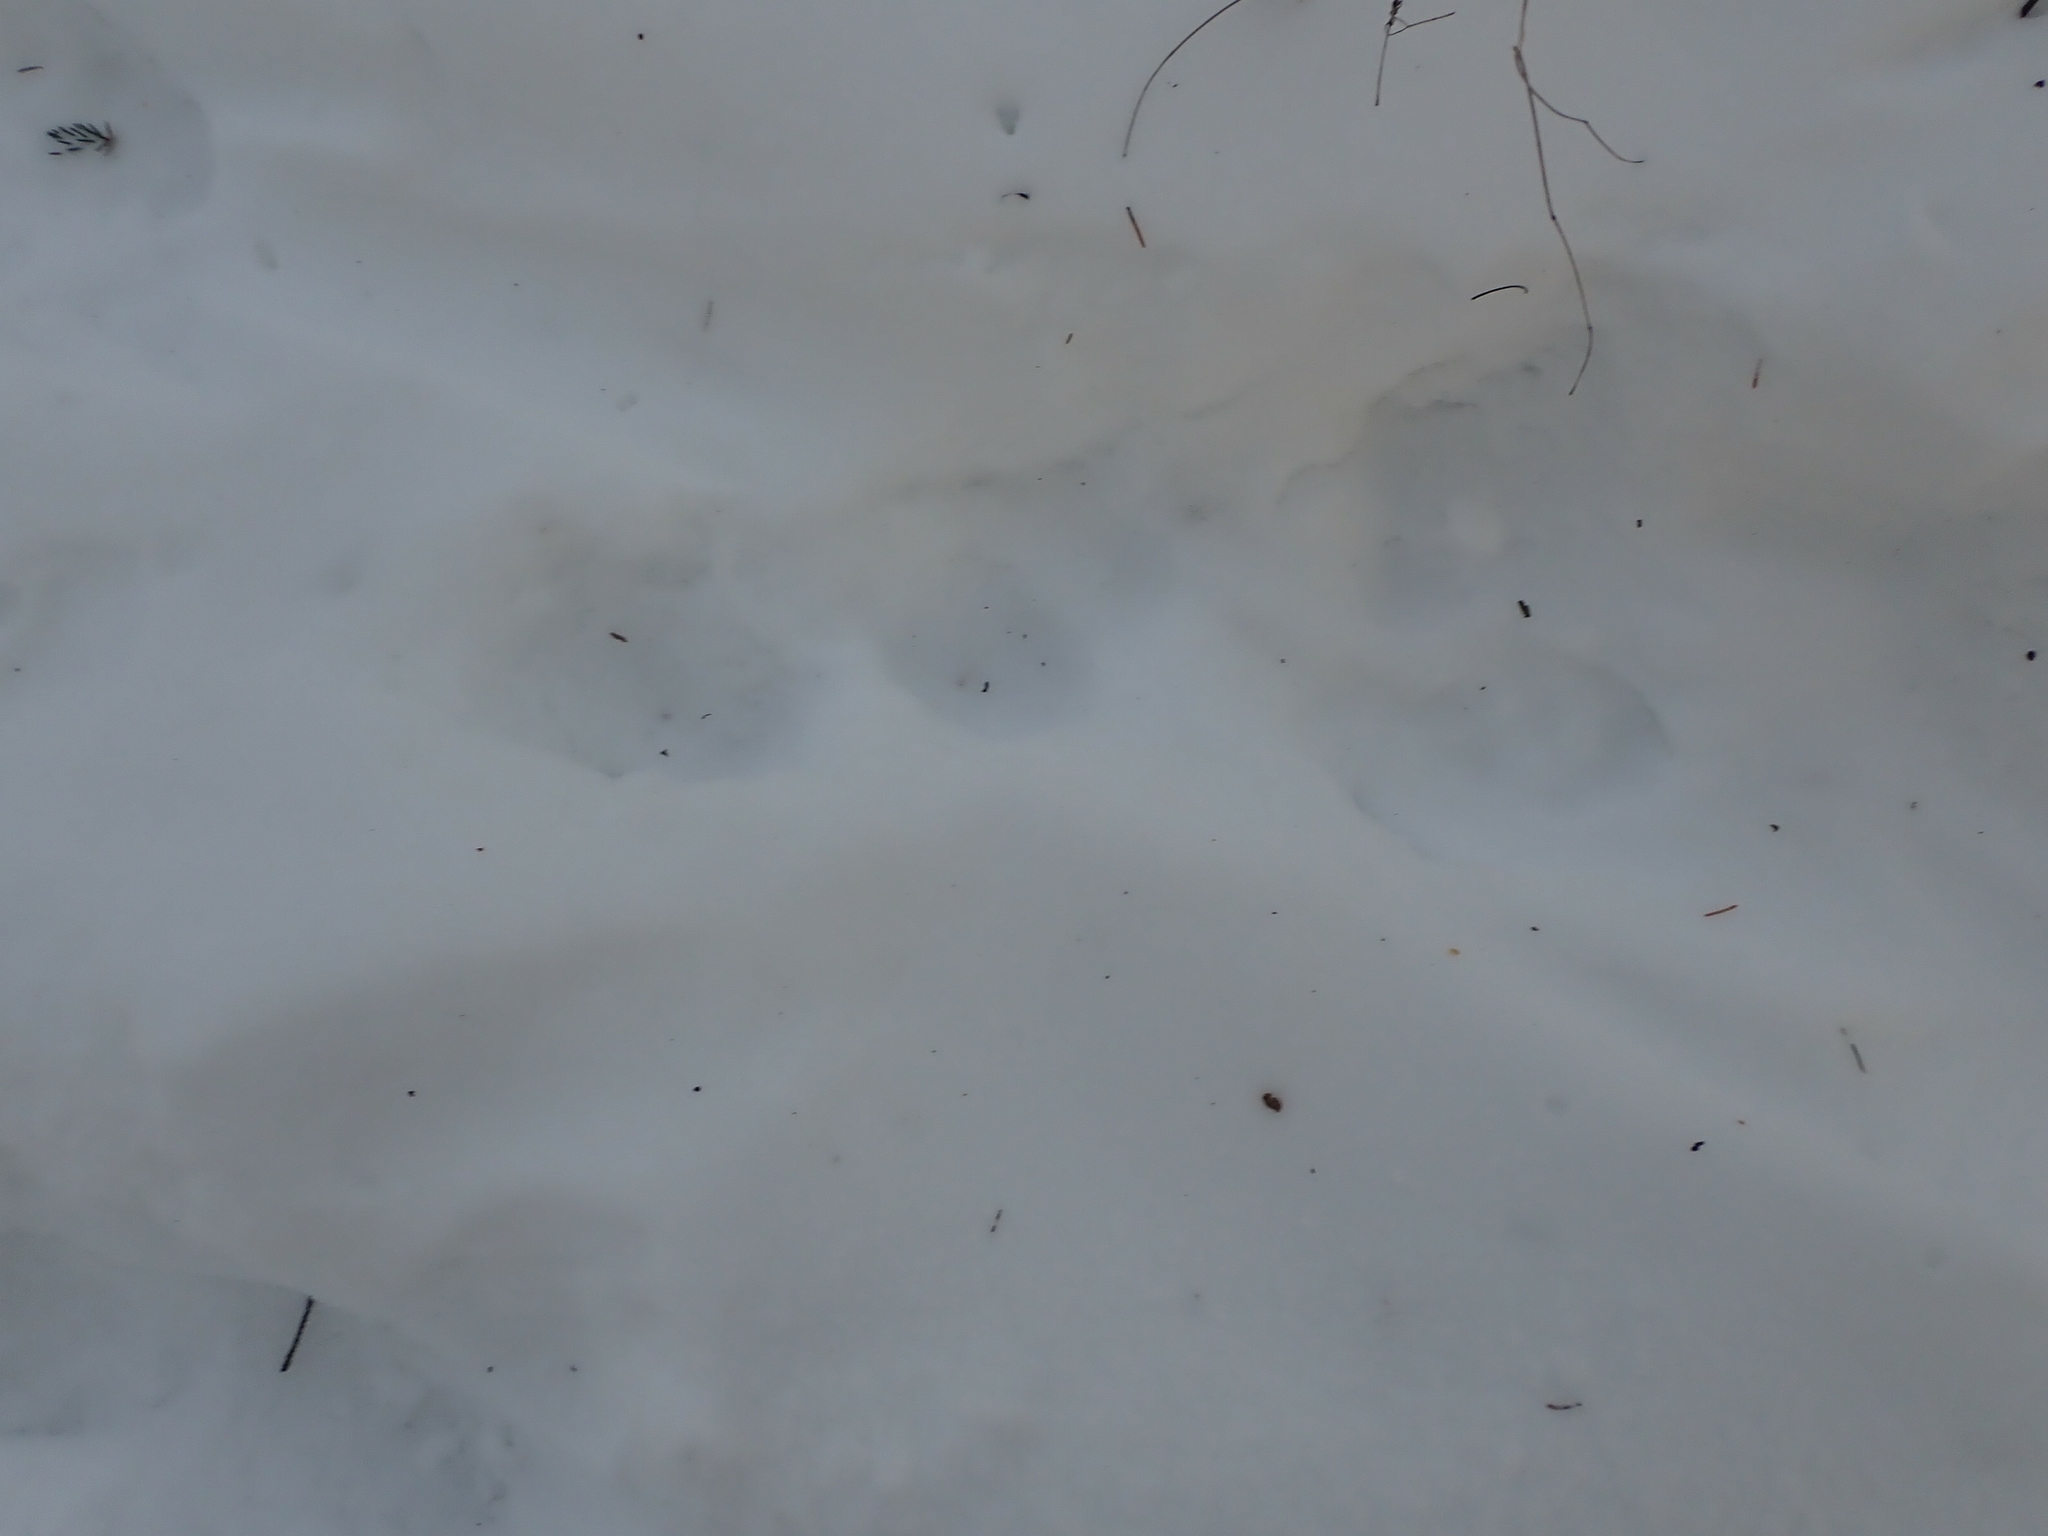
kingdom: Animalia
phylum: Chordata
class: Mammalia
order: Carnivora
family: Mustelidae
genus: Lontra
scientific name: Lontra canadensis
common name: North american river otter
